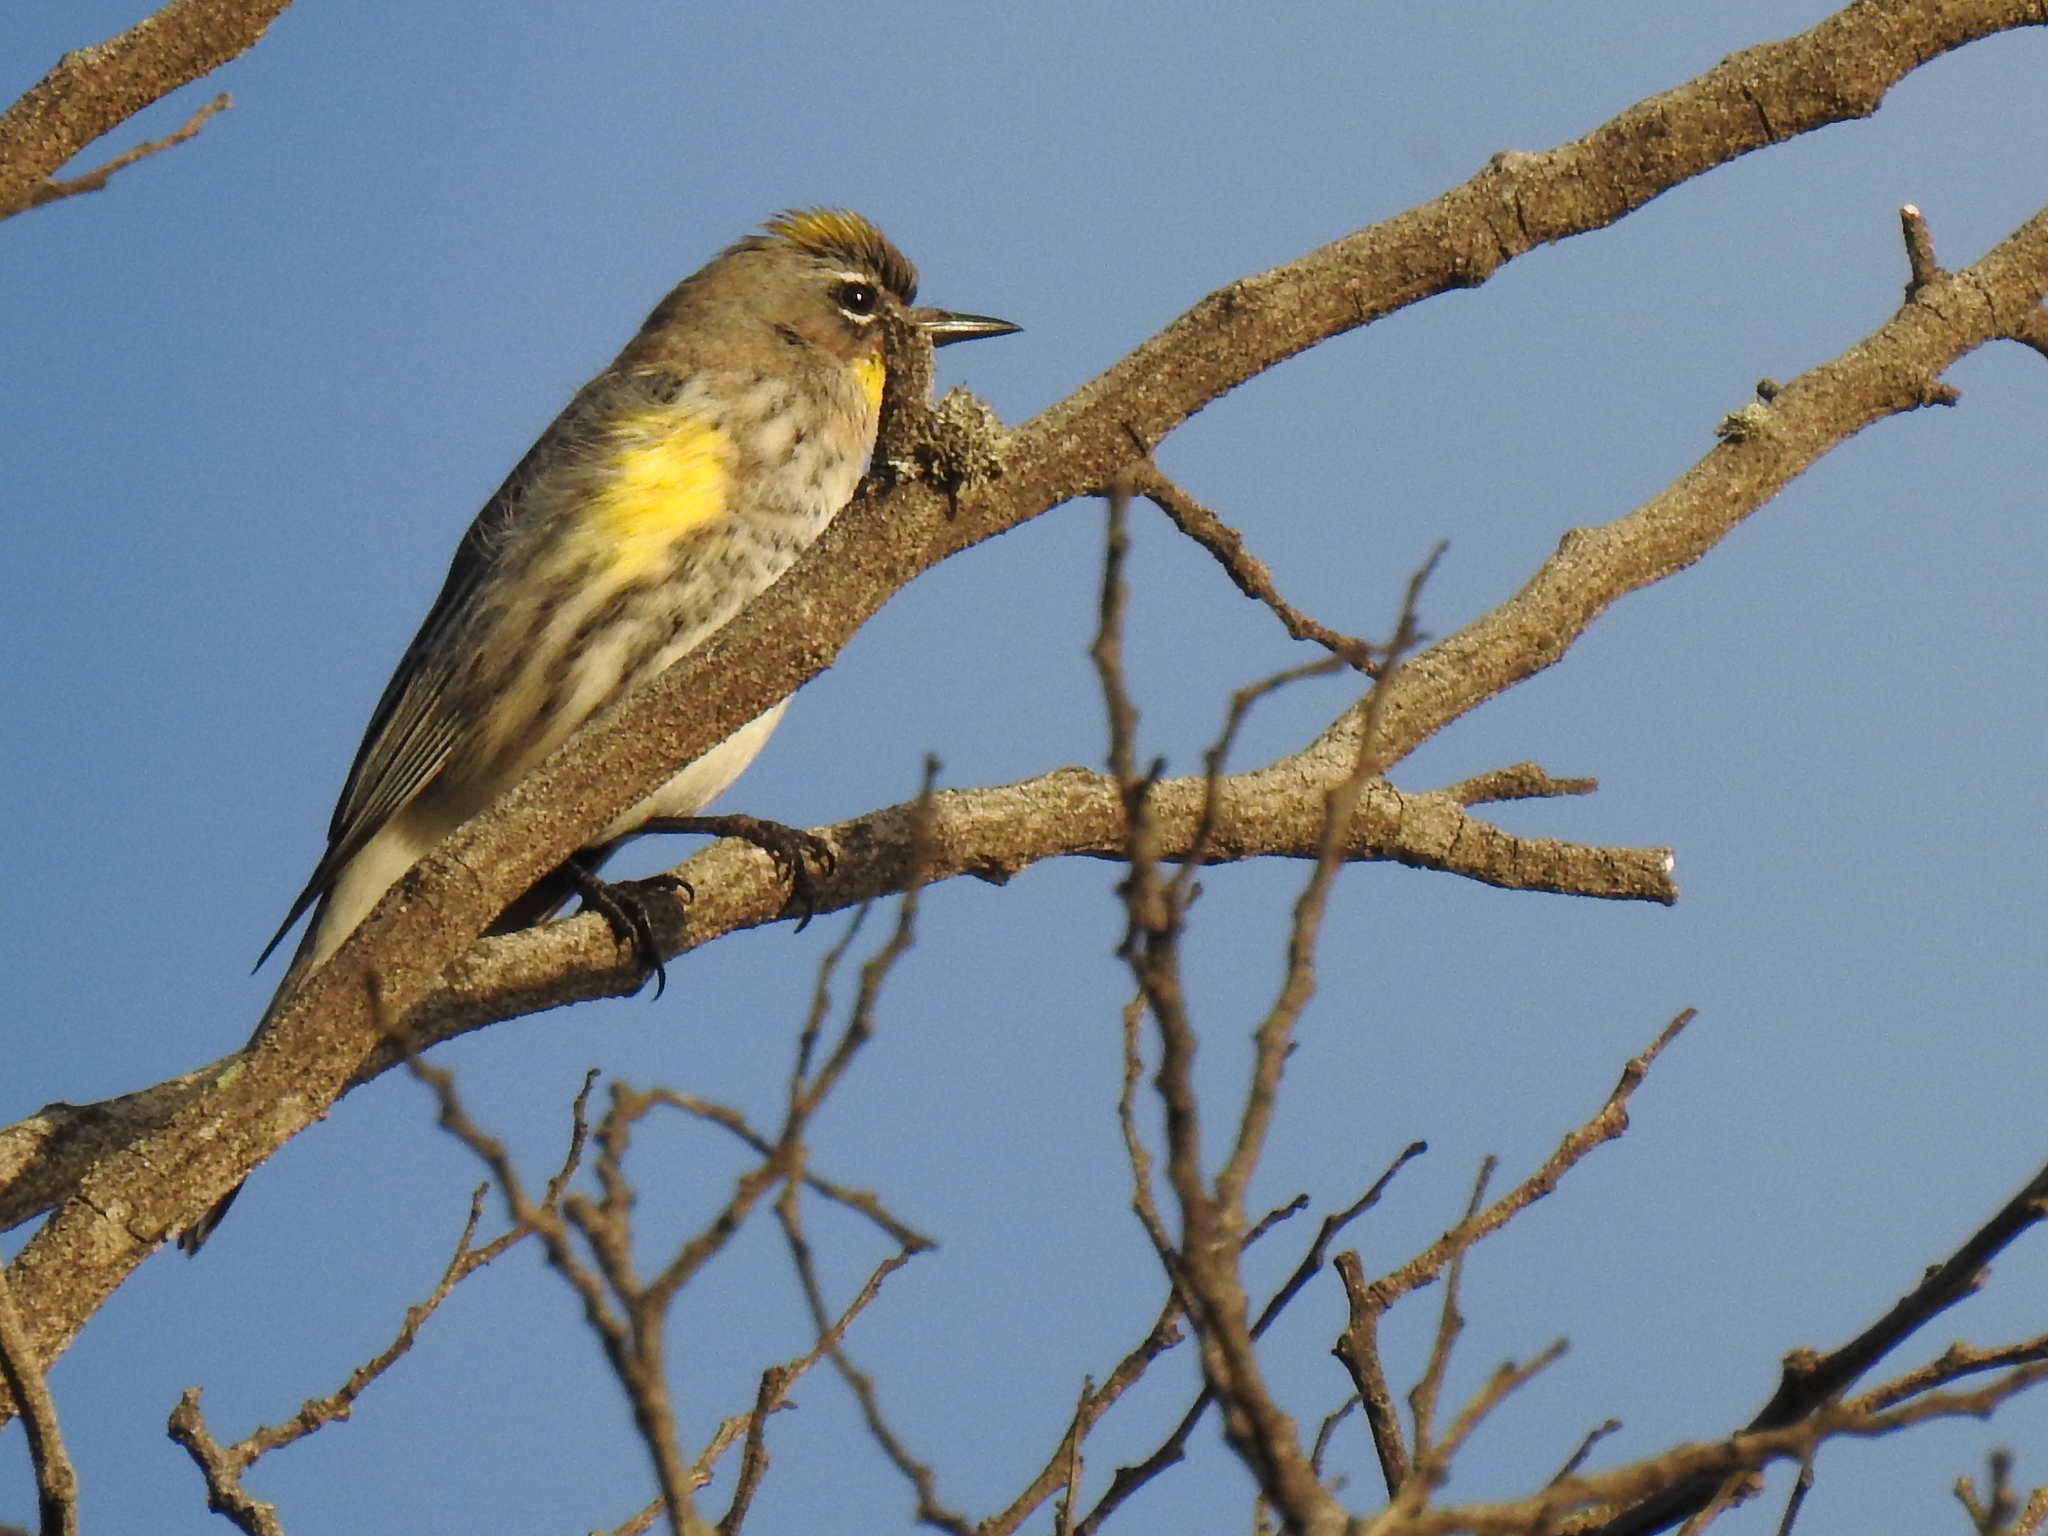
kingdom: Animalia
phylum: Chordata
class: Aves
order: Passeriformes
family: Parulidae
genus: Setophaga
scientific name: Setophaga coronata
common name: Myrtle warbler
